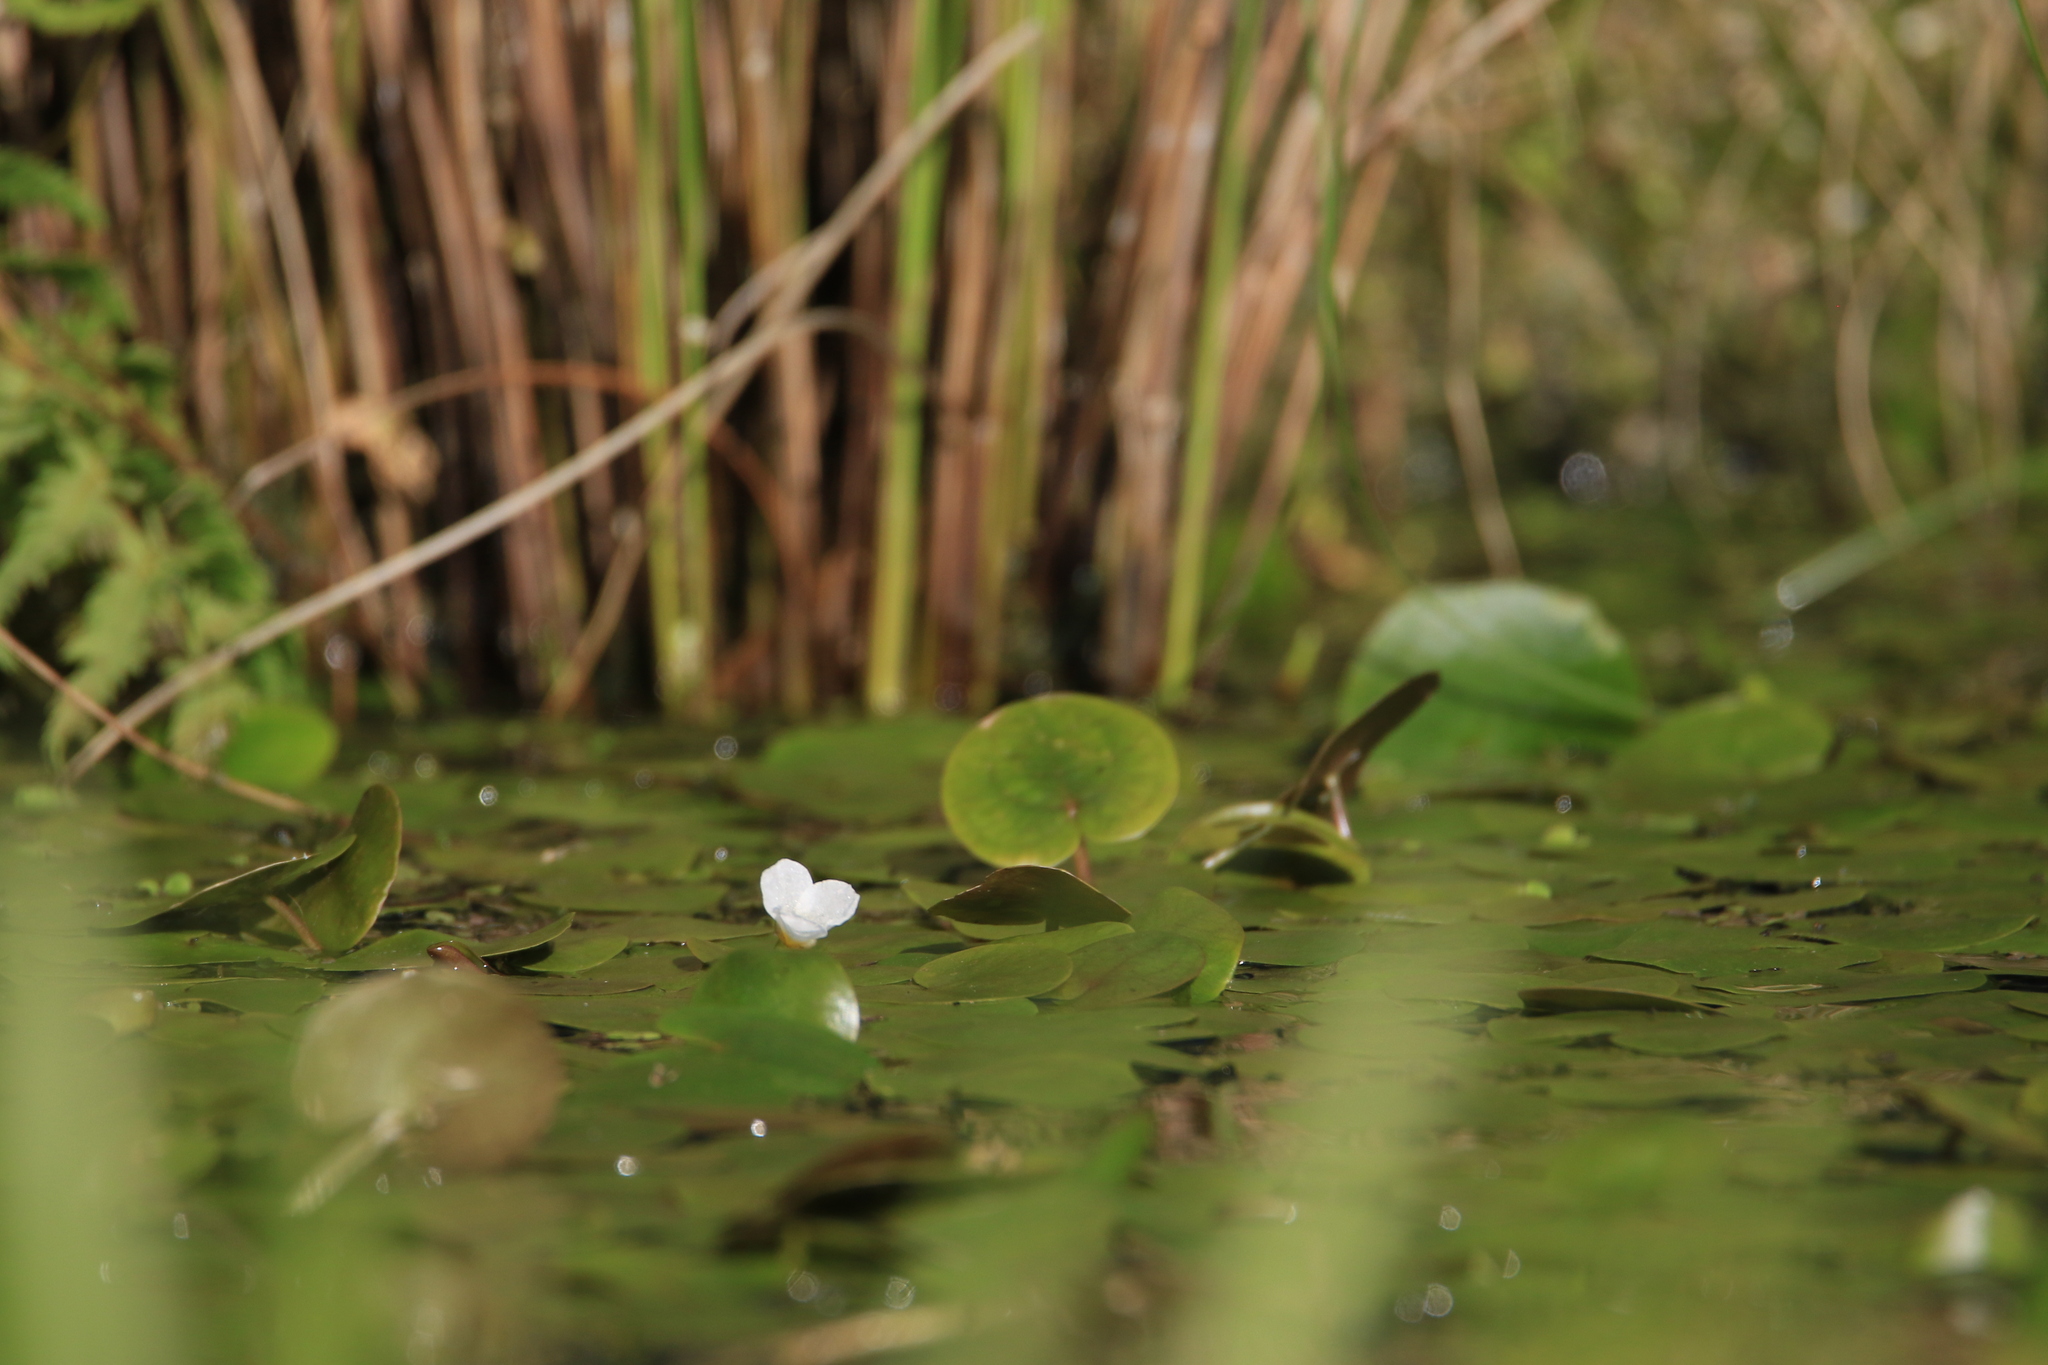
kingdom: Plantae
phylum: Tracheophyta
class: Liliopsida
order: Alismatales
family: Hydrocharitaceae
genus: Hydrocharis
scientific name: Hydrocharis morsus-ranae
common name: Frogbit
